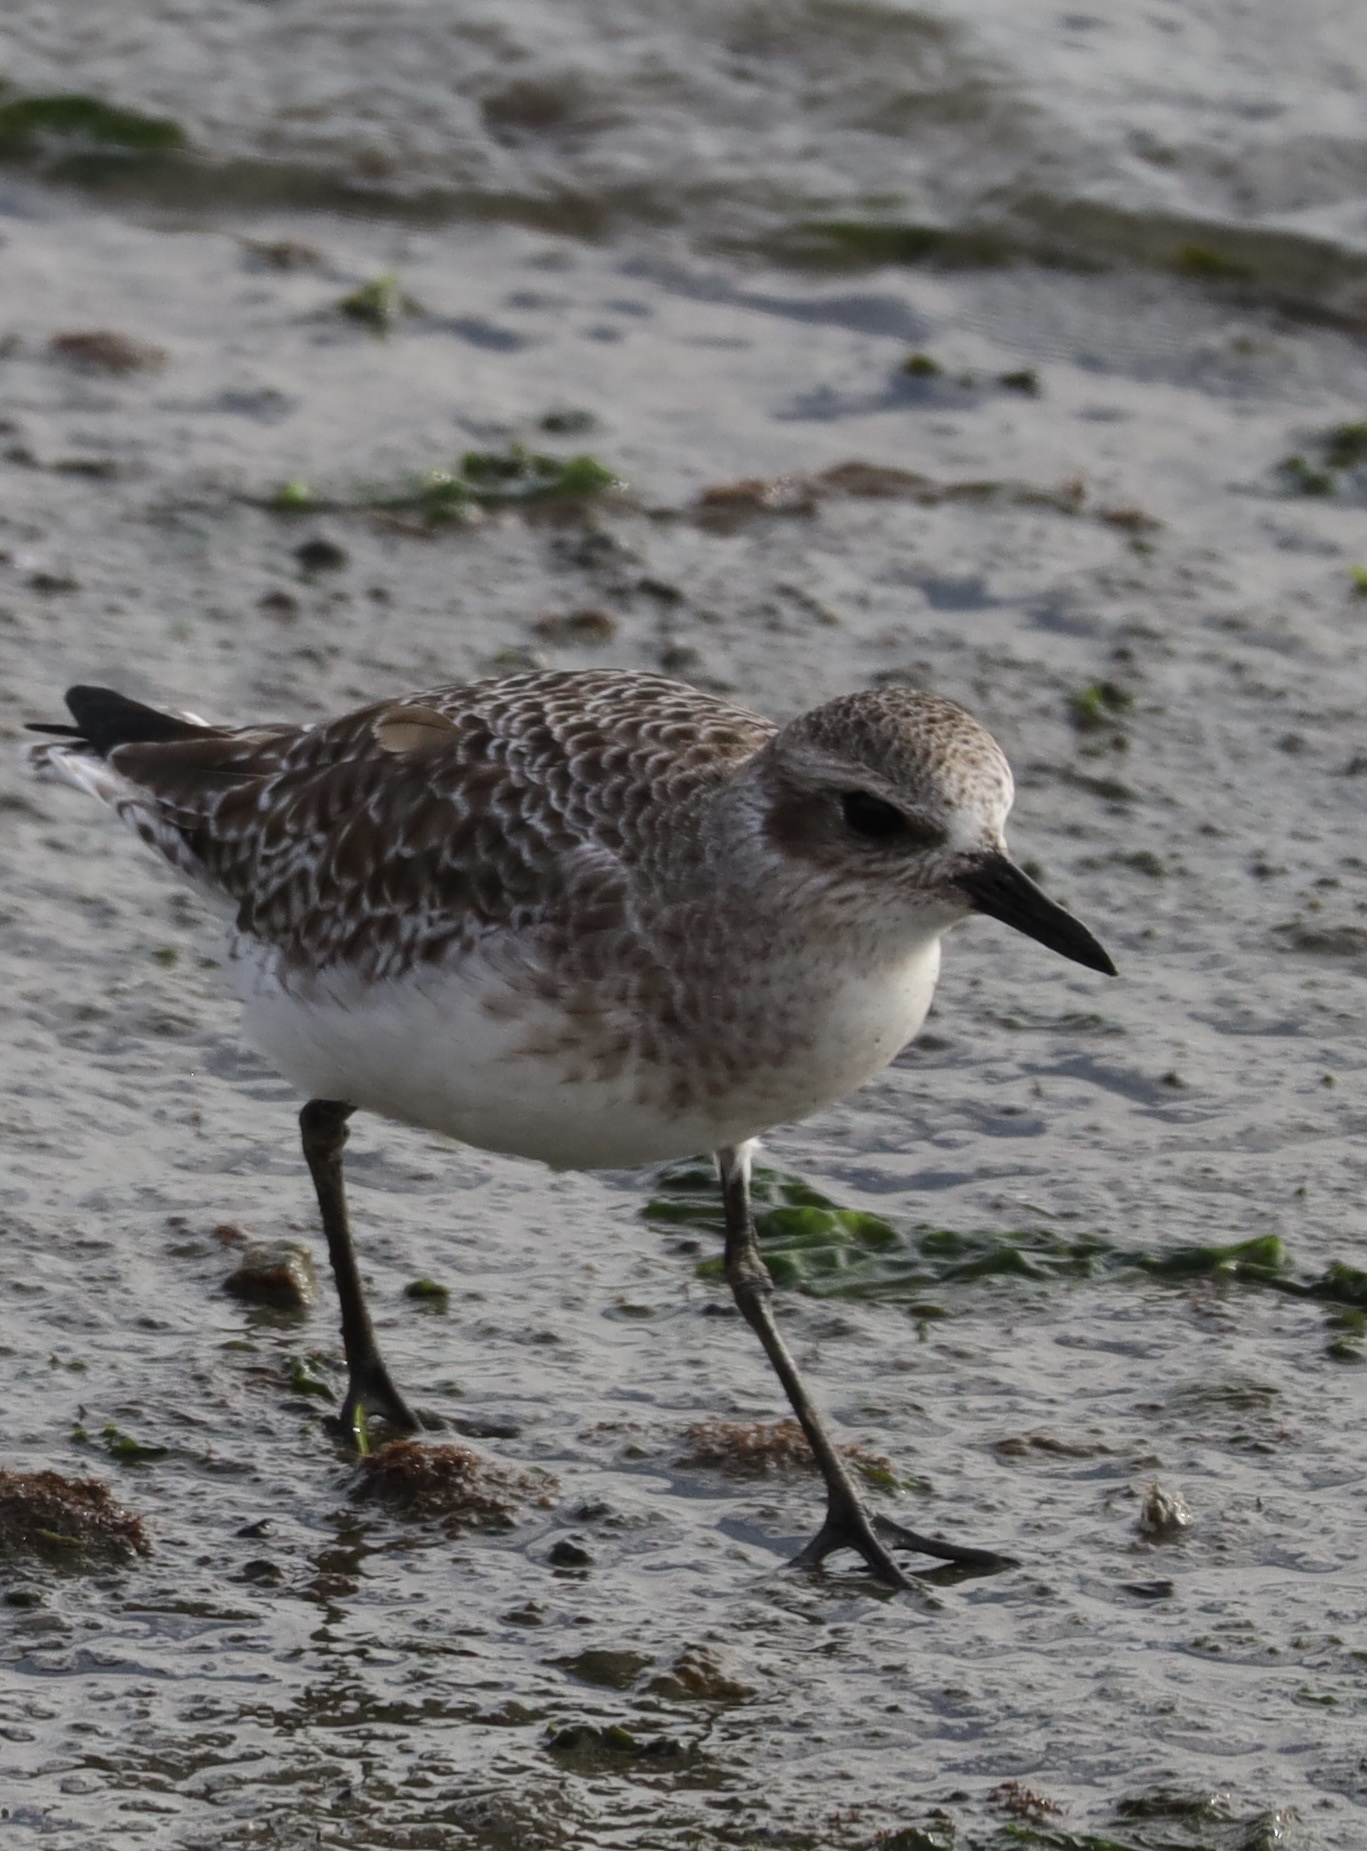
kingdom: Animalia
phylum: Chordata
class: Aves
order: Charadriiformes
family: Charadriidae
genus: Pluvialis
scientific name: Pluvialis squatarola
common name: Grey plover
